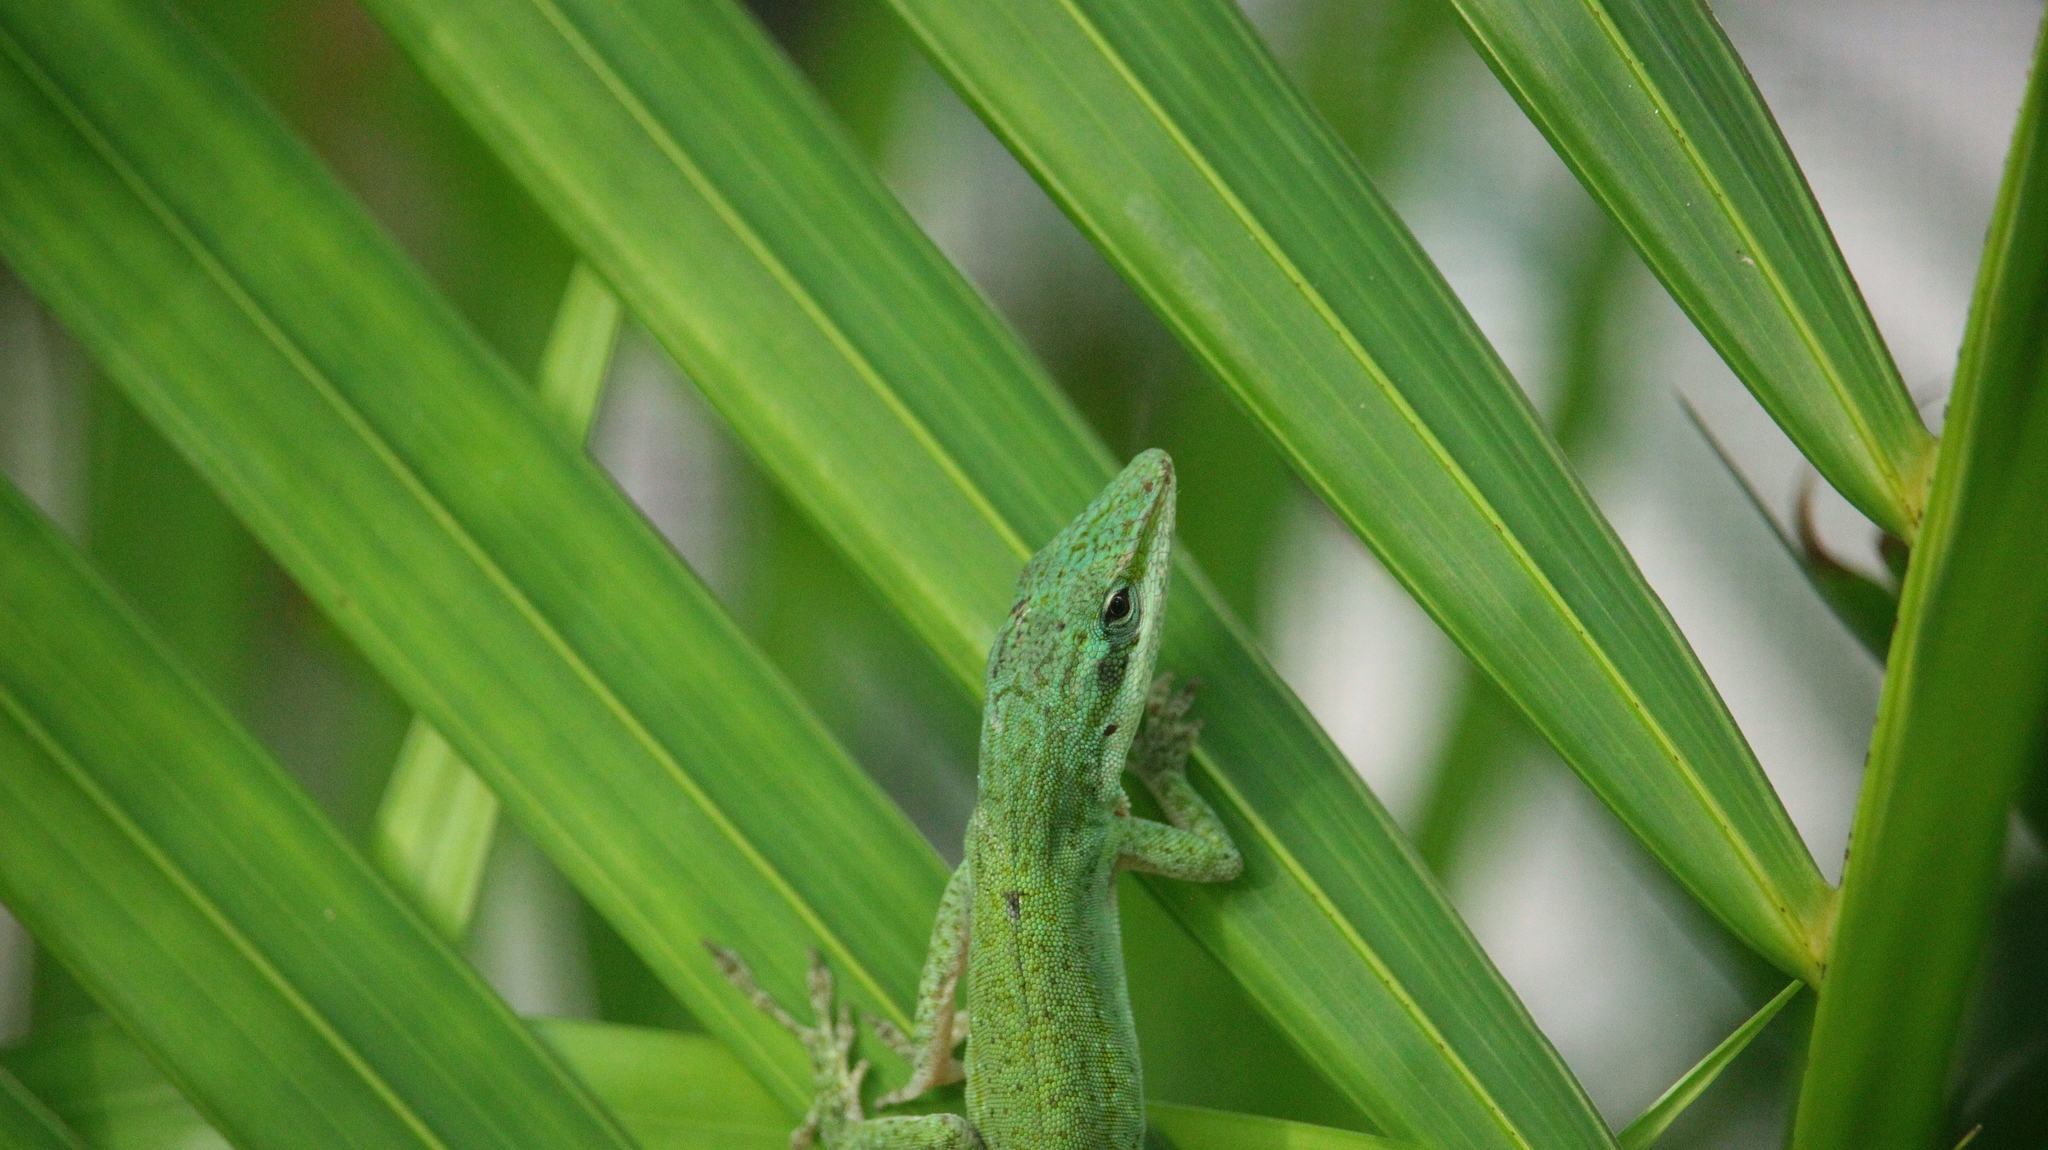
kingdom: Animalia
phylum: Chordata
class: Squamata
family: Dactyloidae
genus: Anolis
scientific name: Anolis carolinensis
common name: Green anole
